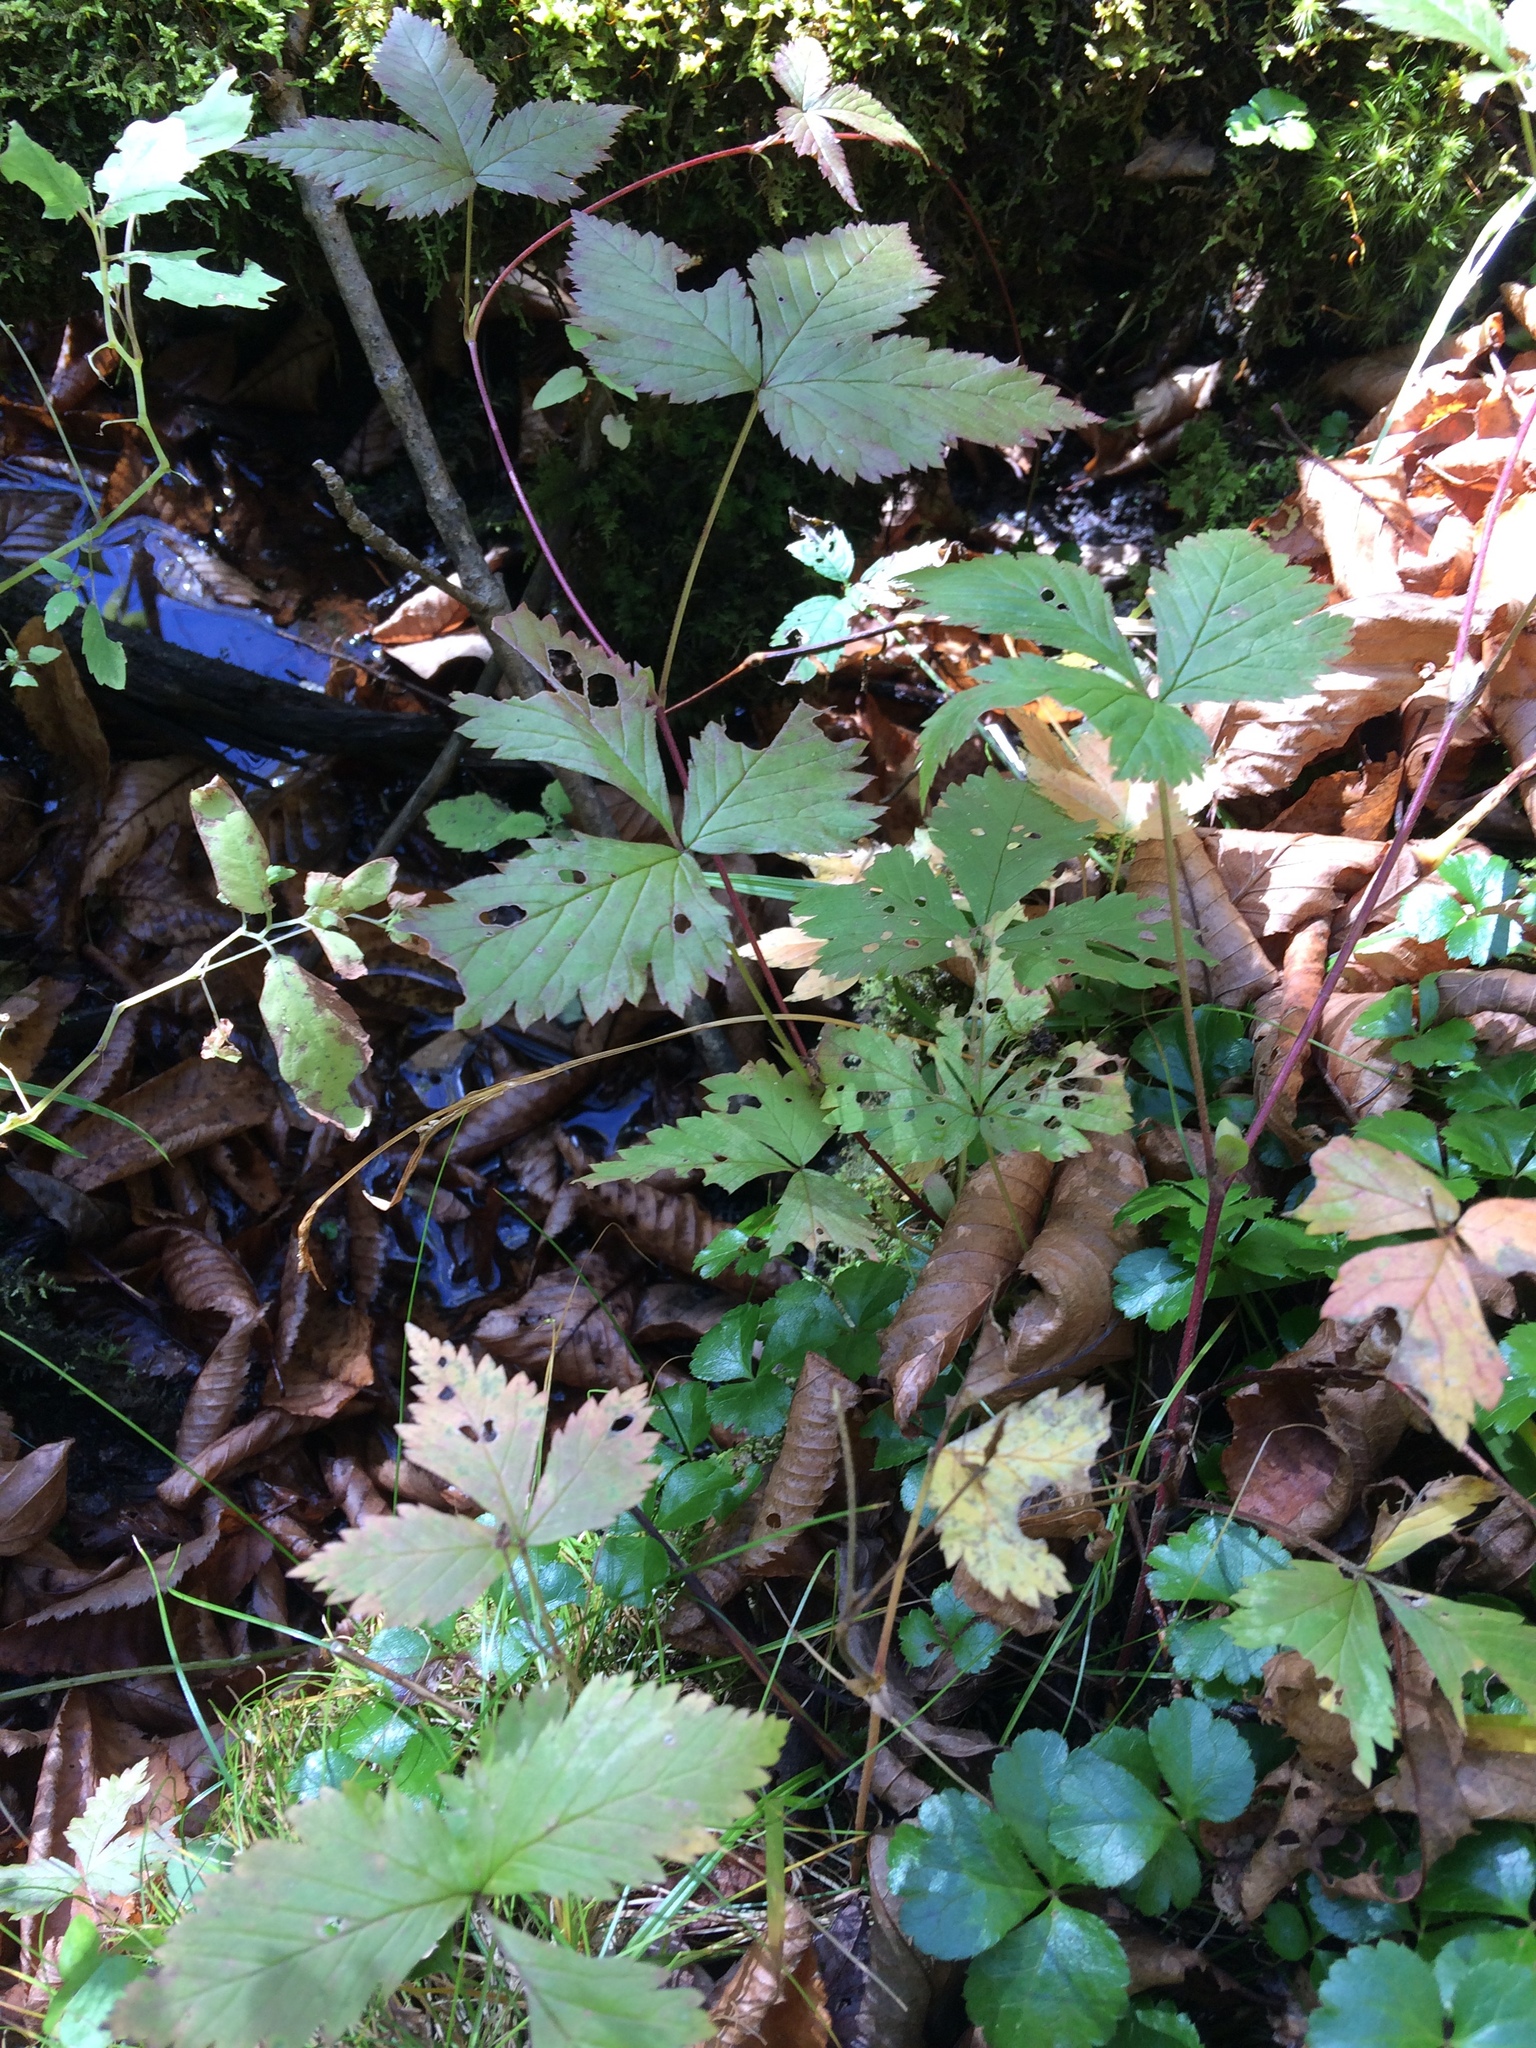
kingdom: Plantae
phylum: Tracheophyta
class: Magnoliopsida
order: Rosales
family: Rosaceae
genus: Rubus
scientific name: Rubus pubescens
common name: Dwarf raspberry
